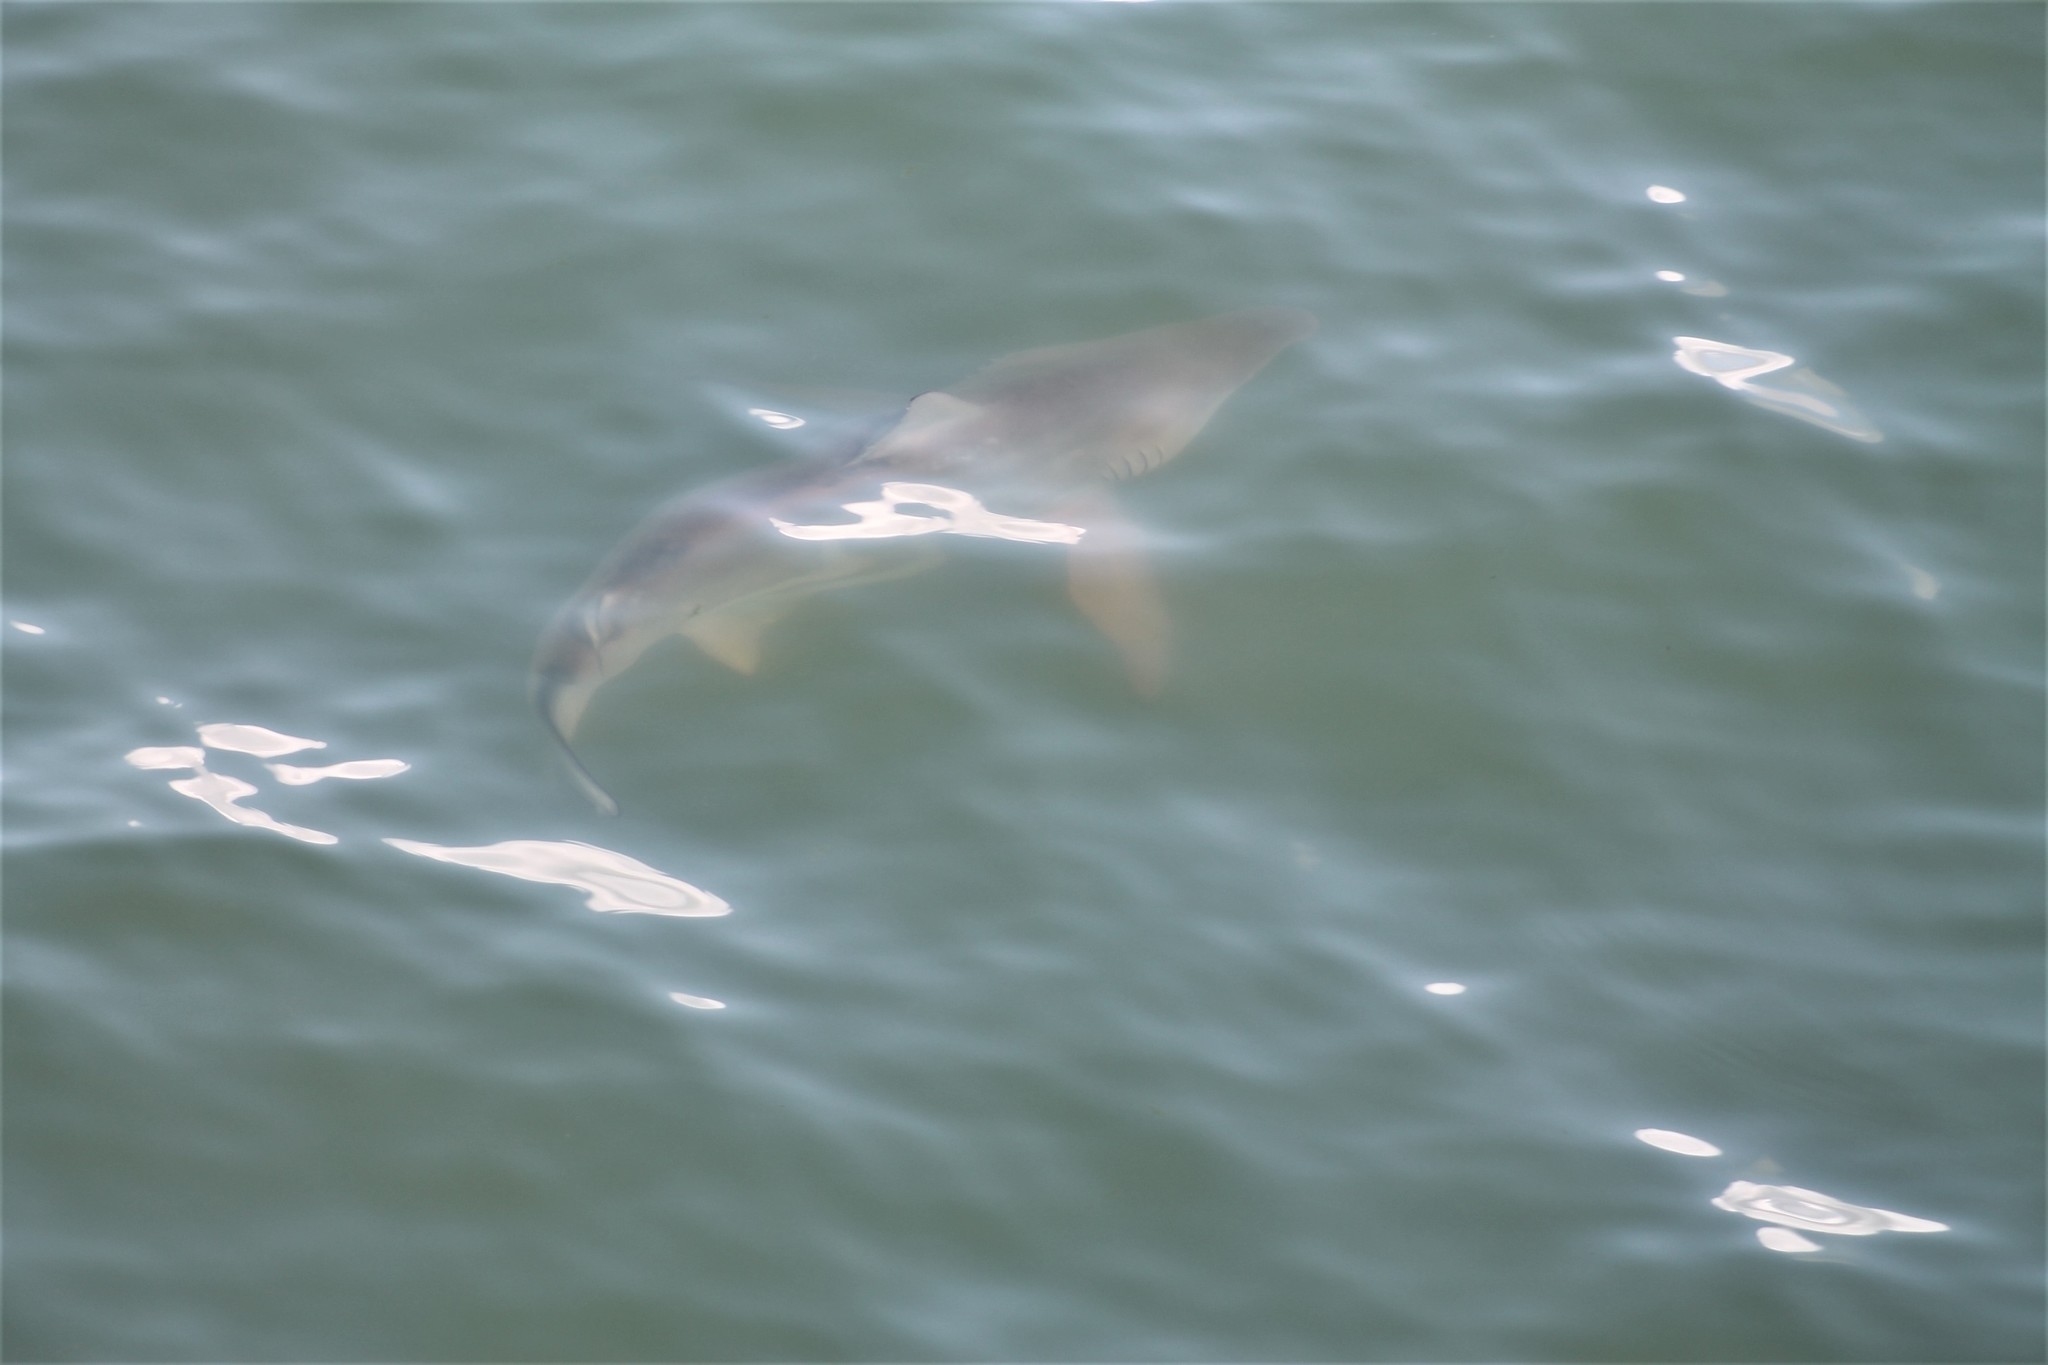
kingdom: Animalia
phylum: Chordata
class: Elasmobranchii
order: Carcharhiniformes
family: Carcharhinidae
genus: Carcharhinus
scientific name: Carcharhinus limbatus
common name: Blacktip shark
